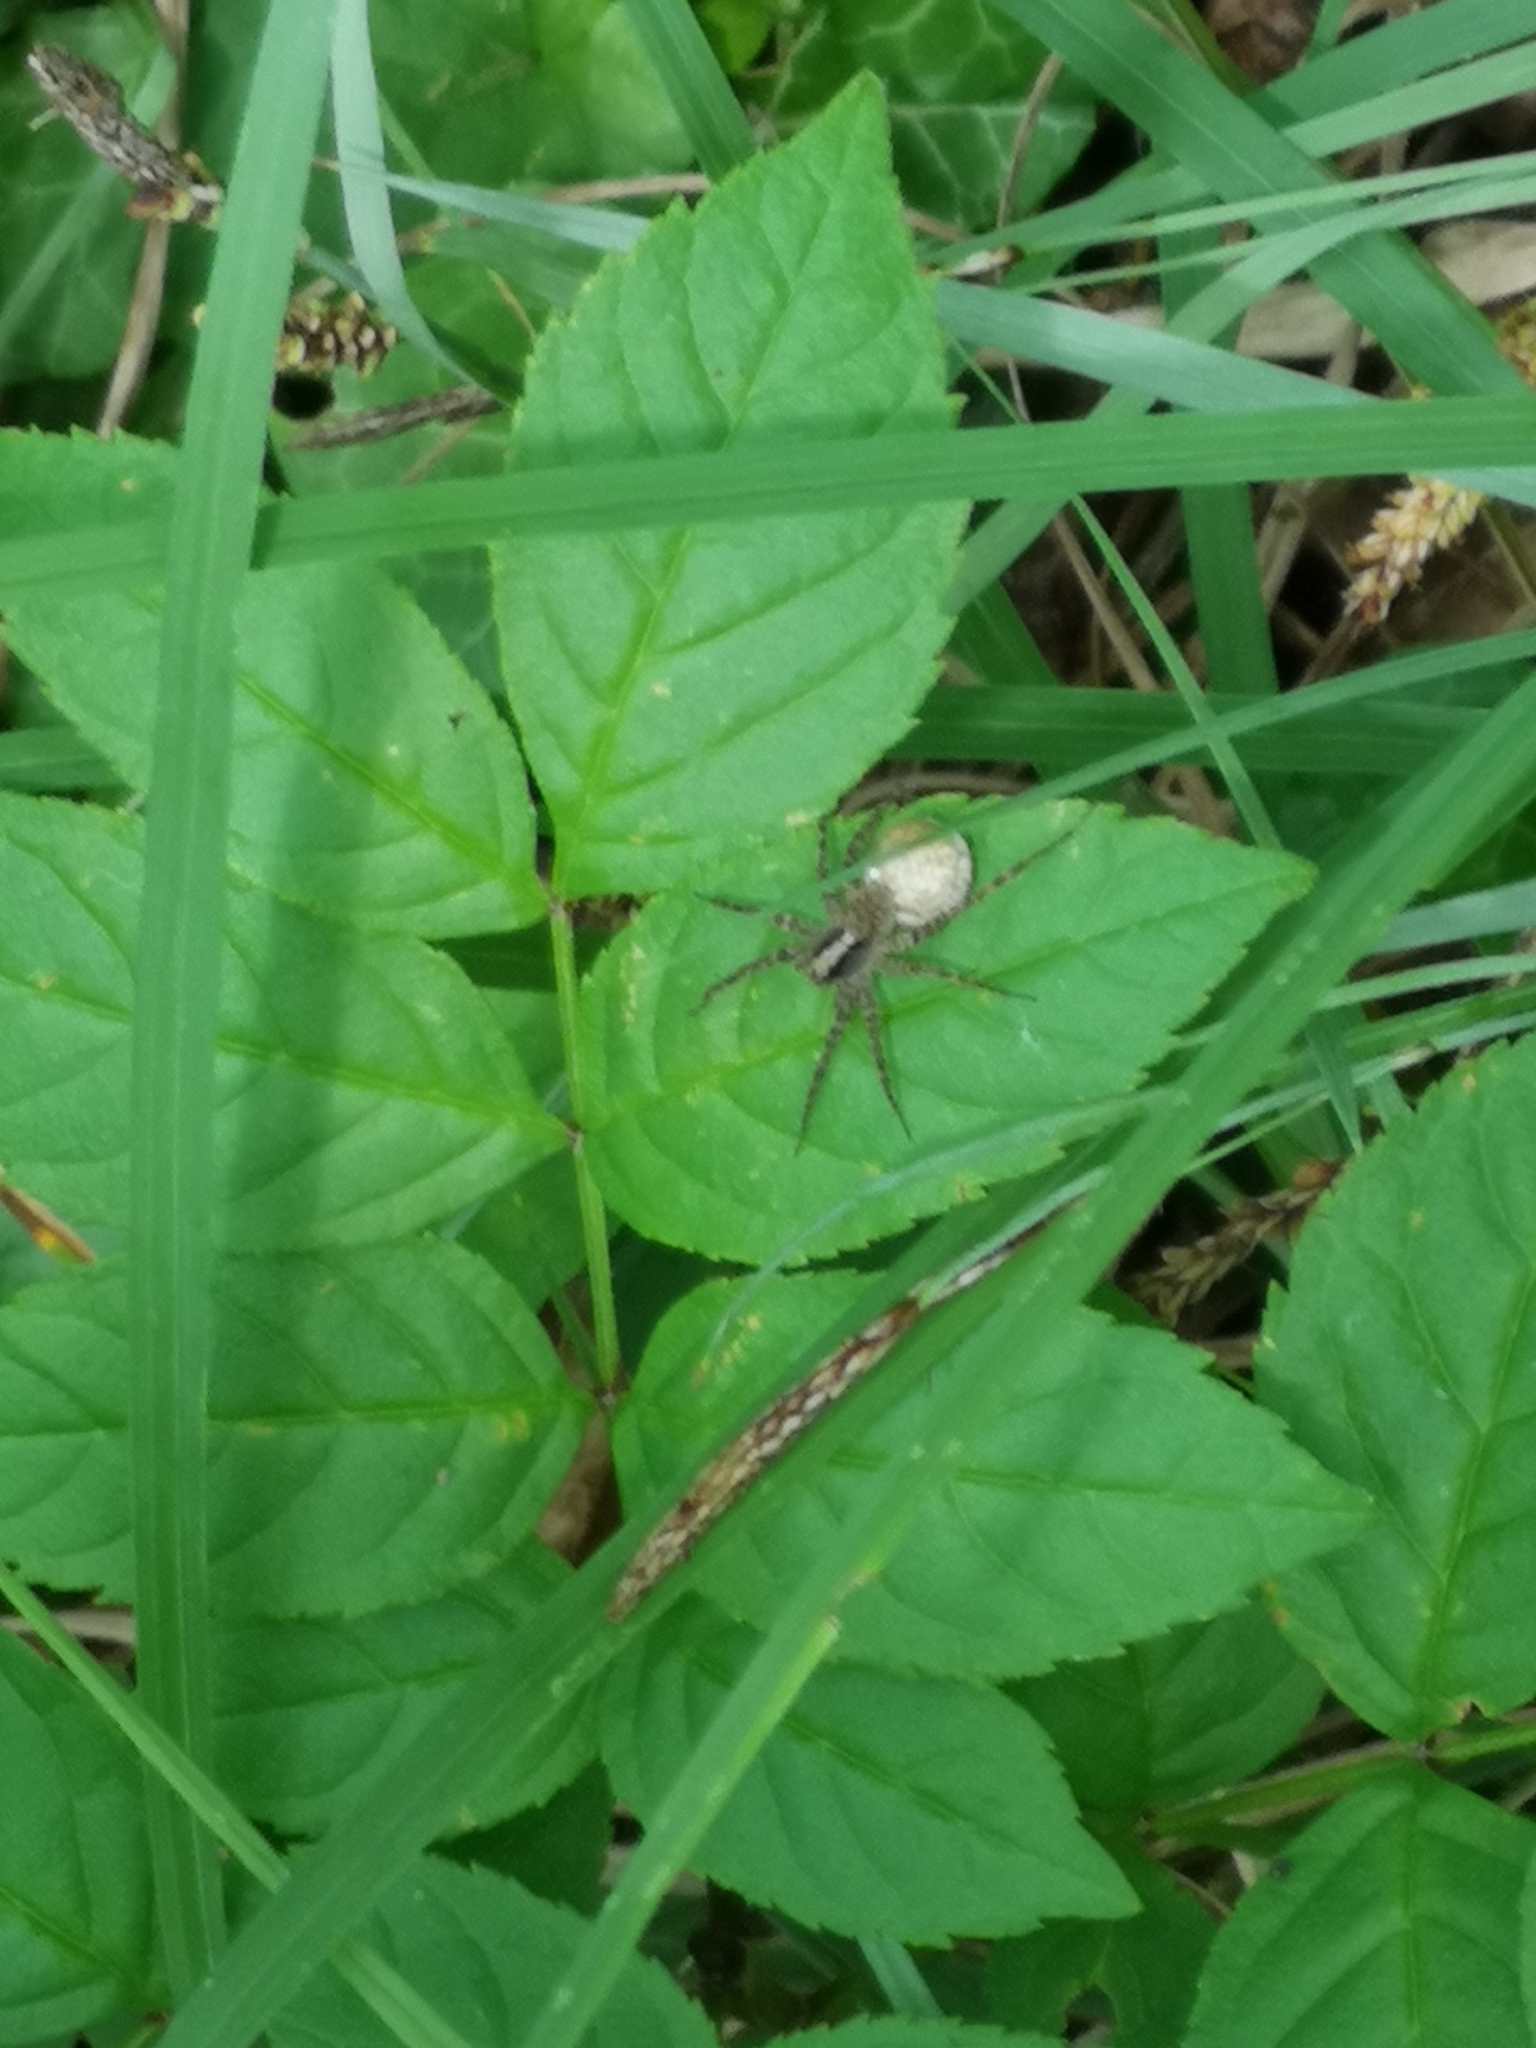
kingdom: Animalia
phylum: Arthropoda
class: Arachnida
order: Araneae
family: Lycosidae
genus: Pardosa
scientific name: Pardosa
